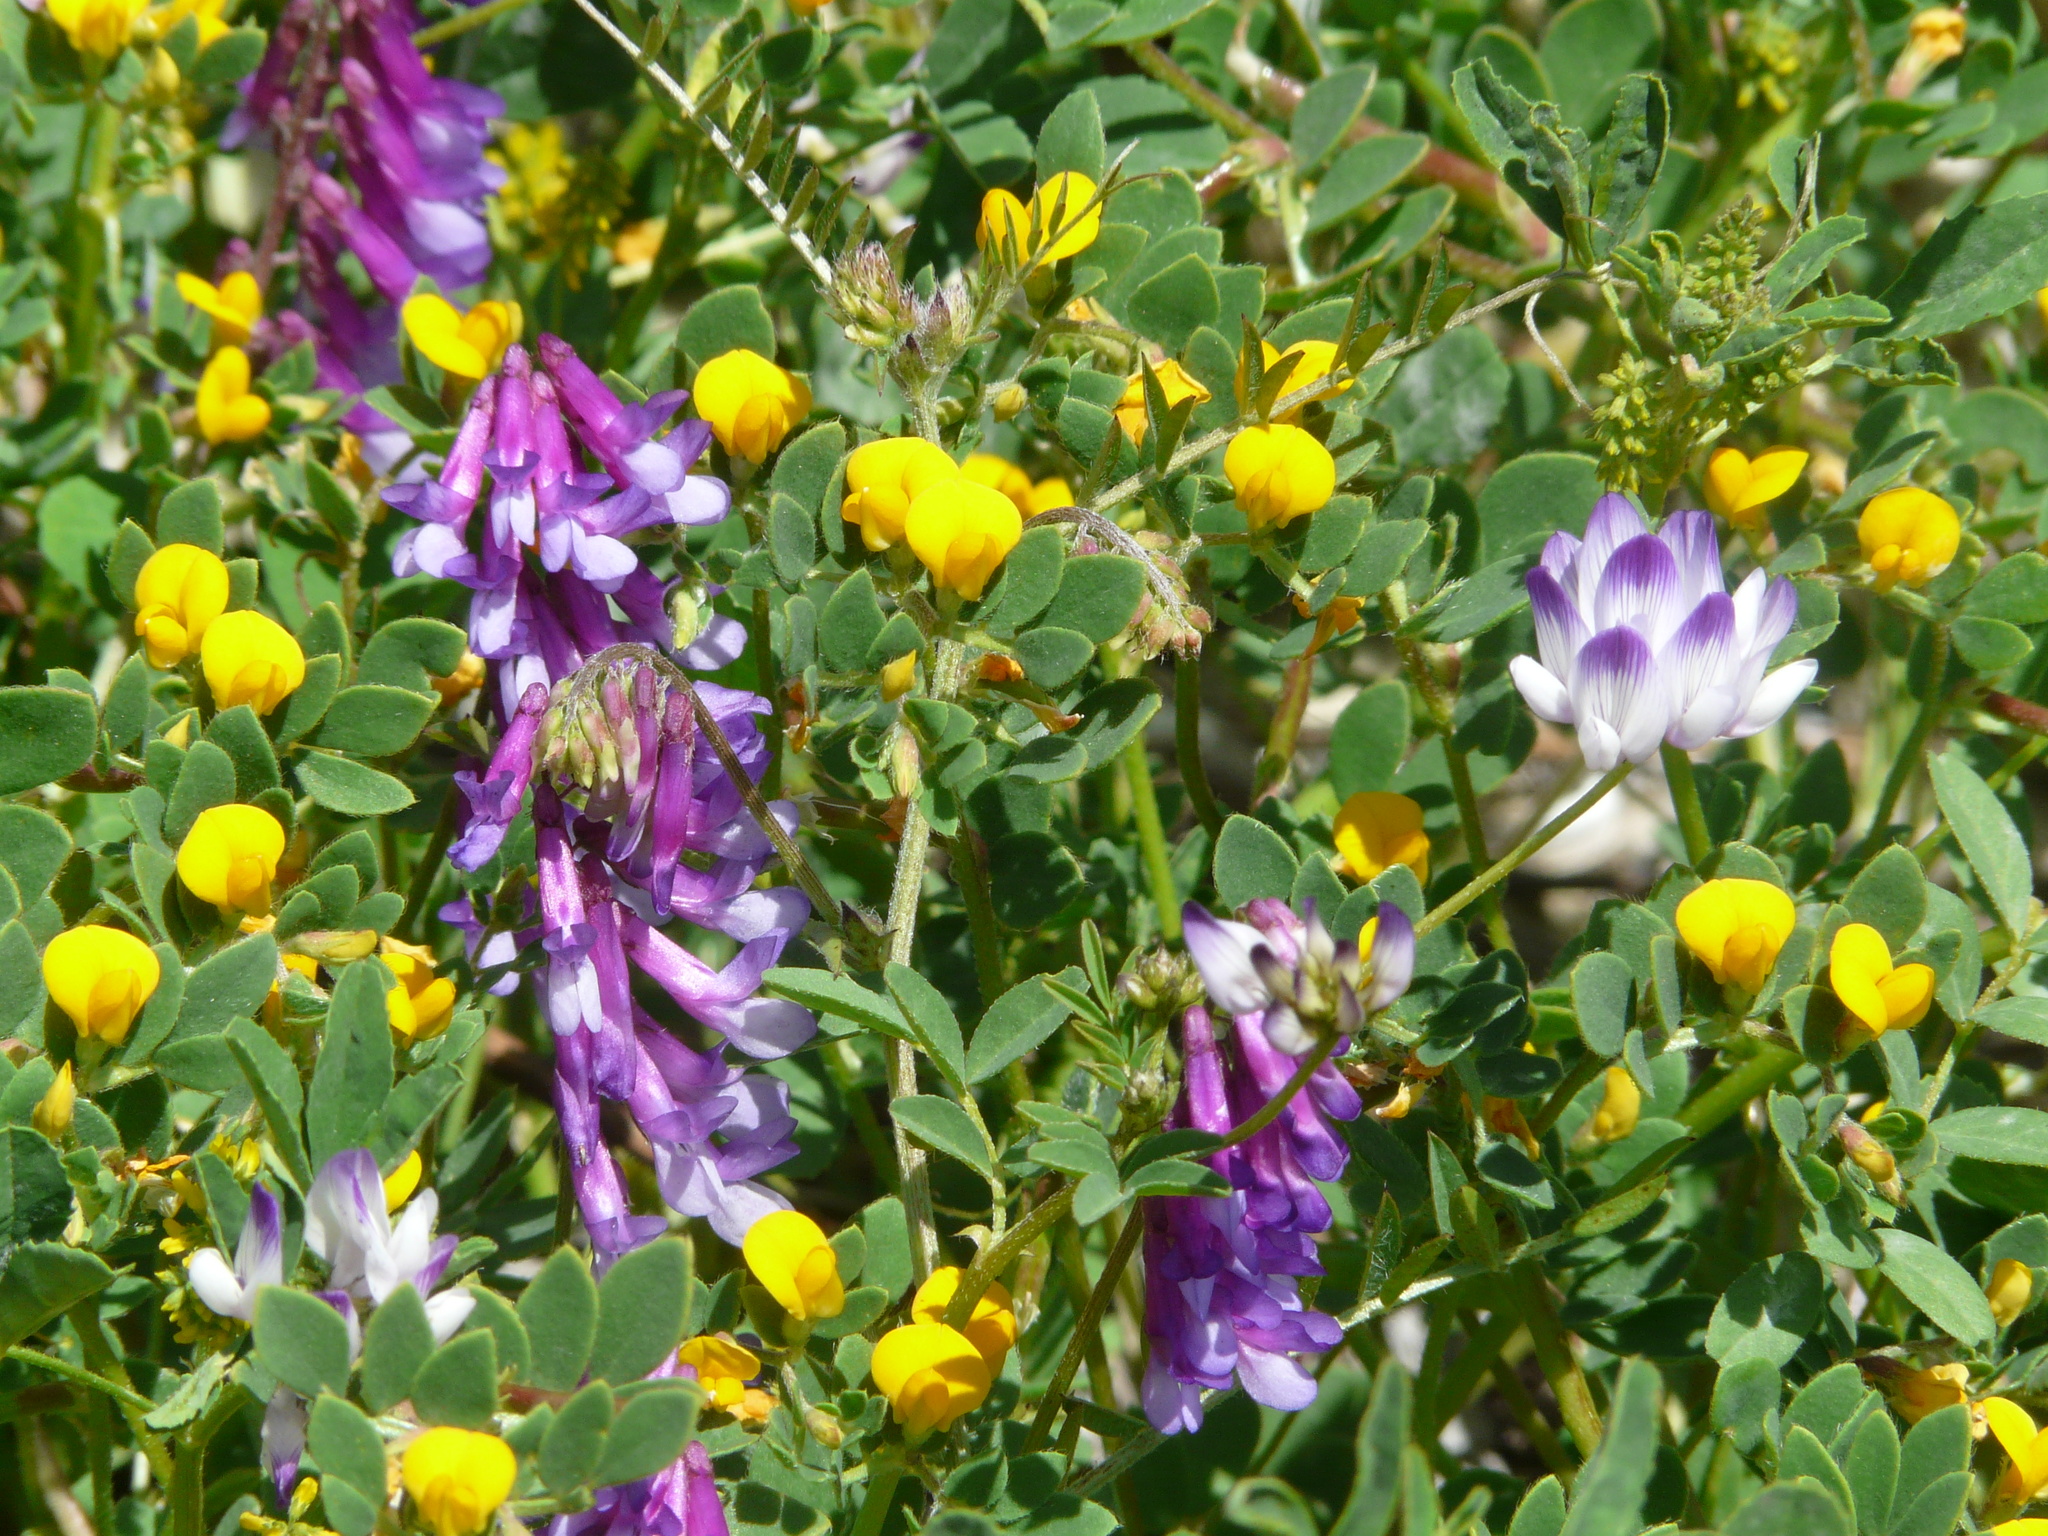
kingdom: Plantae
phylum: Tracheophyta
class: Magnoliopsida
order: Fabales
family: Fabaceae
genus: Vicia
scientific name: Vicia villosa
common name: Fodder vetch
